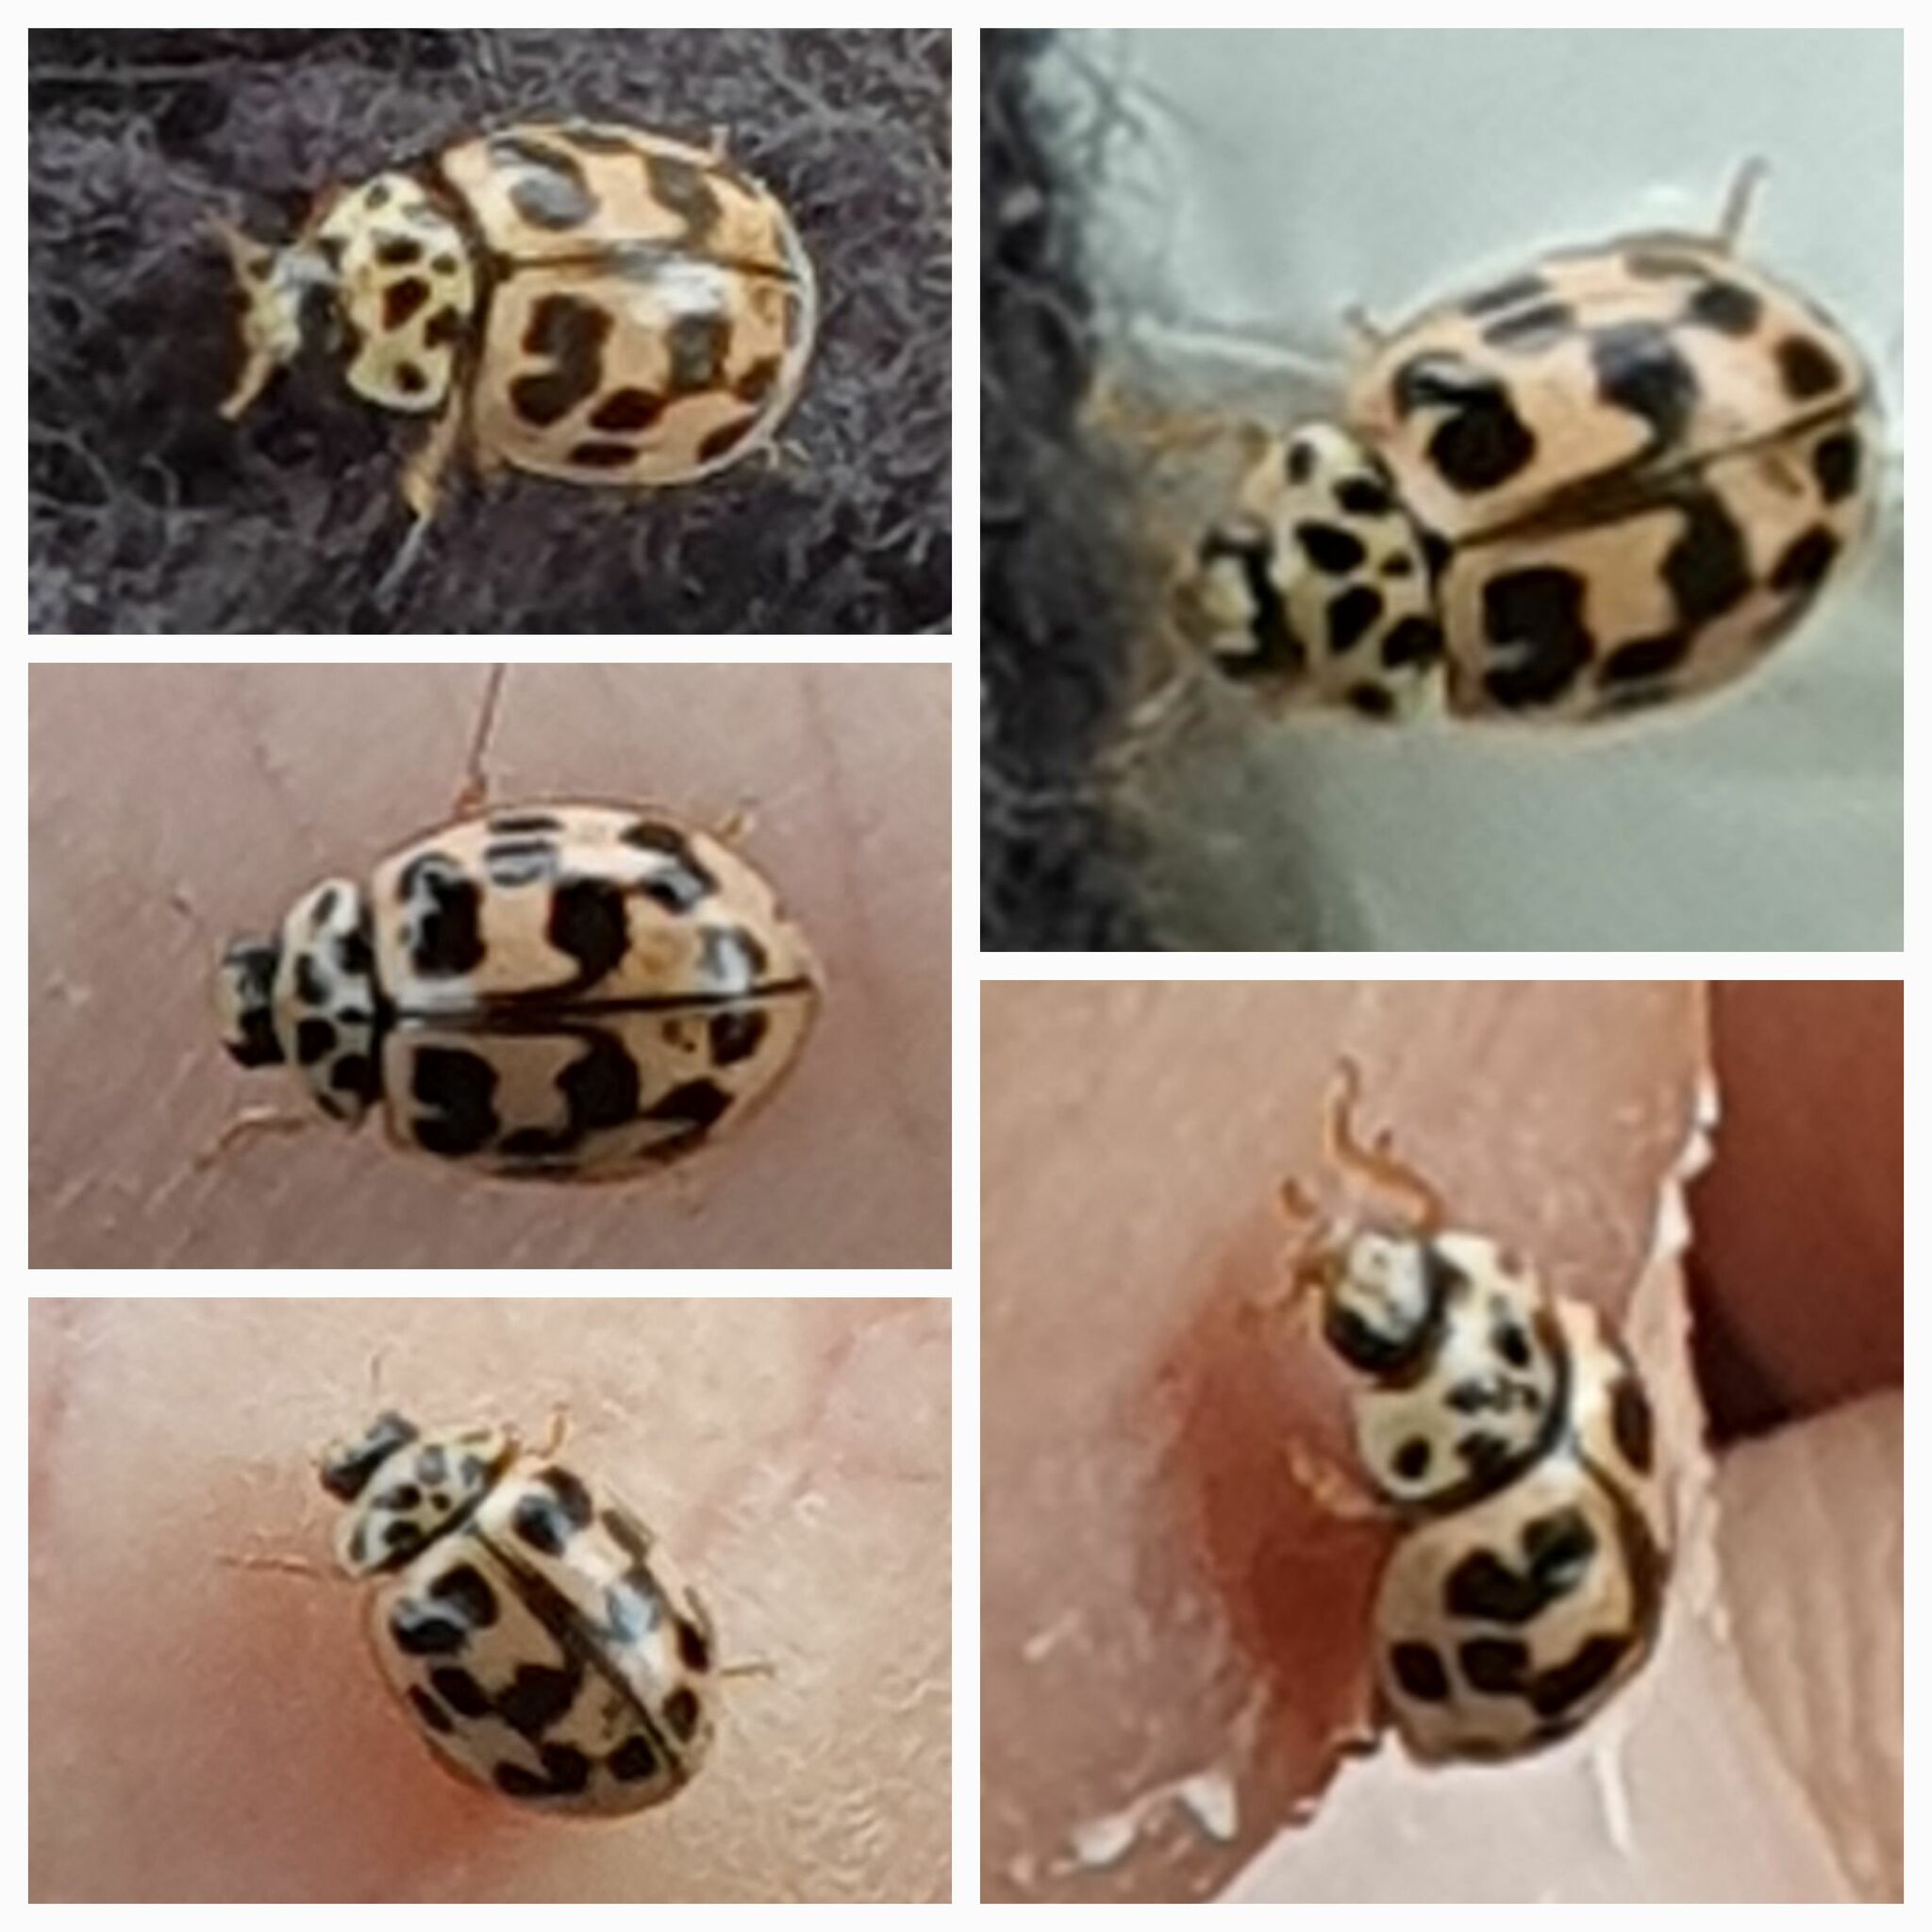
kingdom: Animalia
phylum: Arthropoda
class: Insecta
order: Coleoptera
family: Coccinellidae
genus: Oenopia
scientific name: Oenopia conglobata
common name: Ladybird beetle
